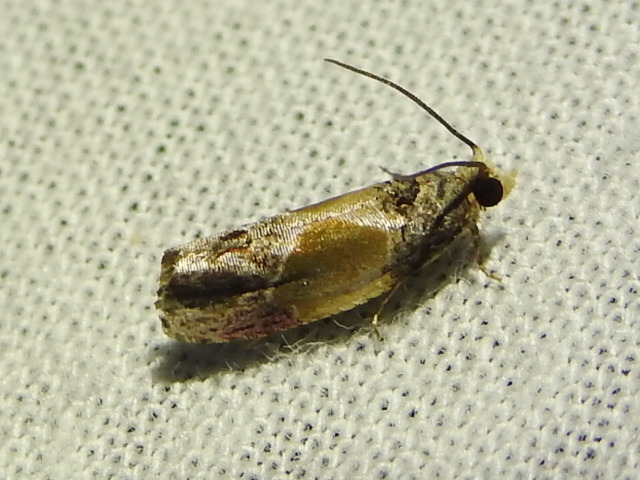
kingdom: Animalia
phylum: Arthropoda
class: Insecta
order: Lepidoptera
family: Tortricidae
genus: Eumarozia
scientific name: Eumarozia malachitana
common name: Sculptured moth
